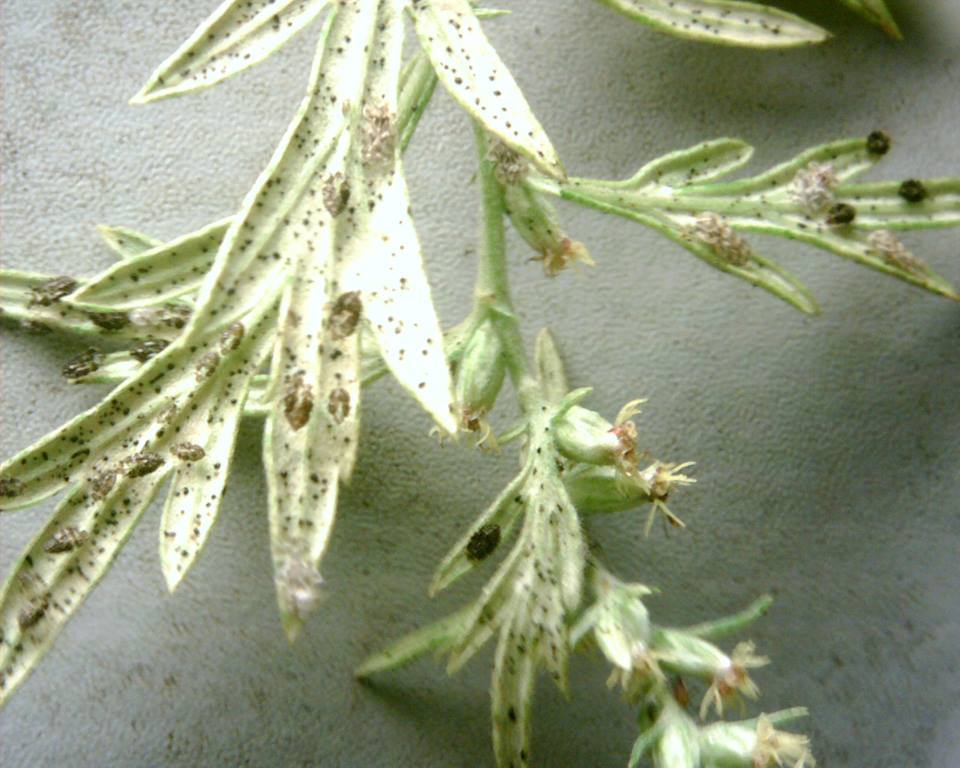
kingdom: Animalia
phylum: Arthropoda
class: Insecta
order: Hemiptera
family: Tingidae
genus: Corythucha
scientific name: Corythucha marmorata
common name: Chrysanthemum lace bug
